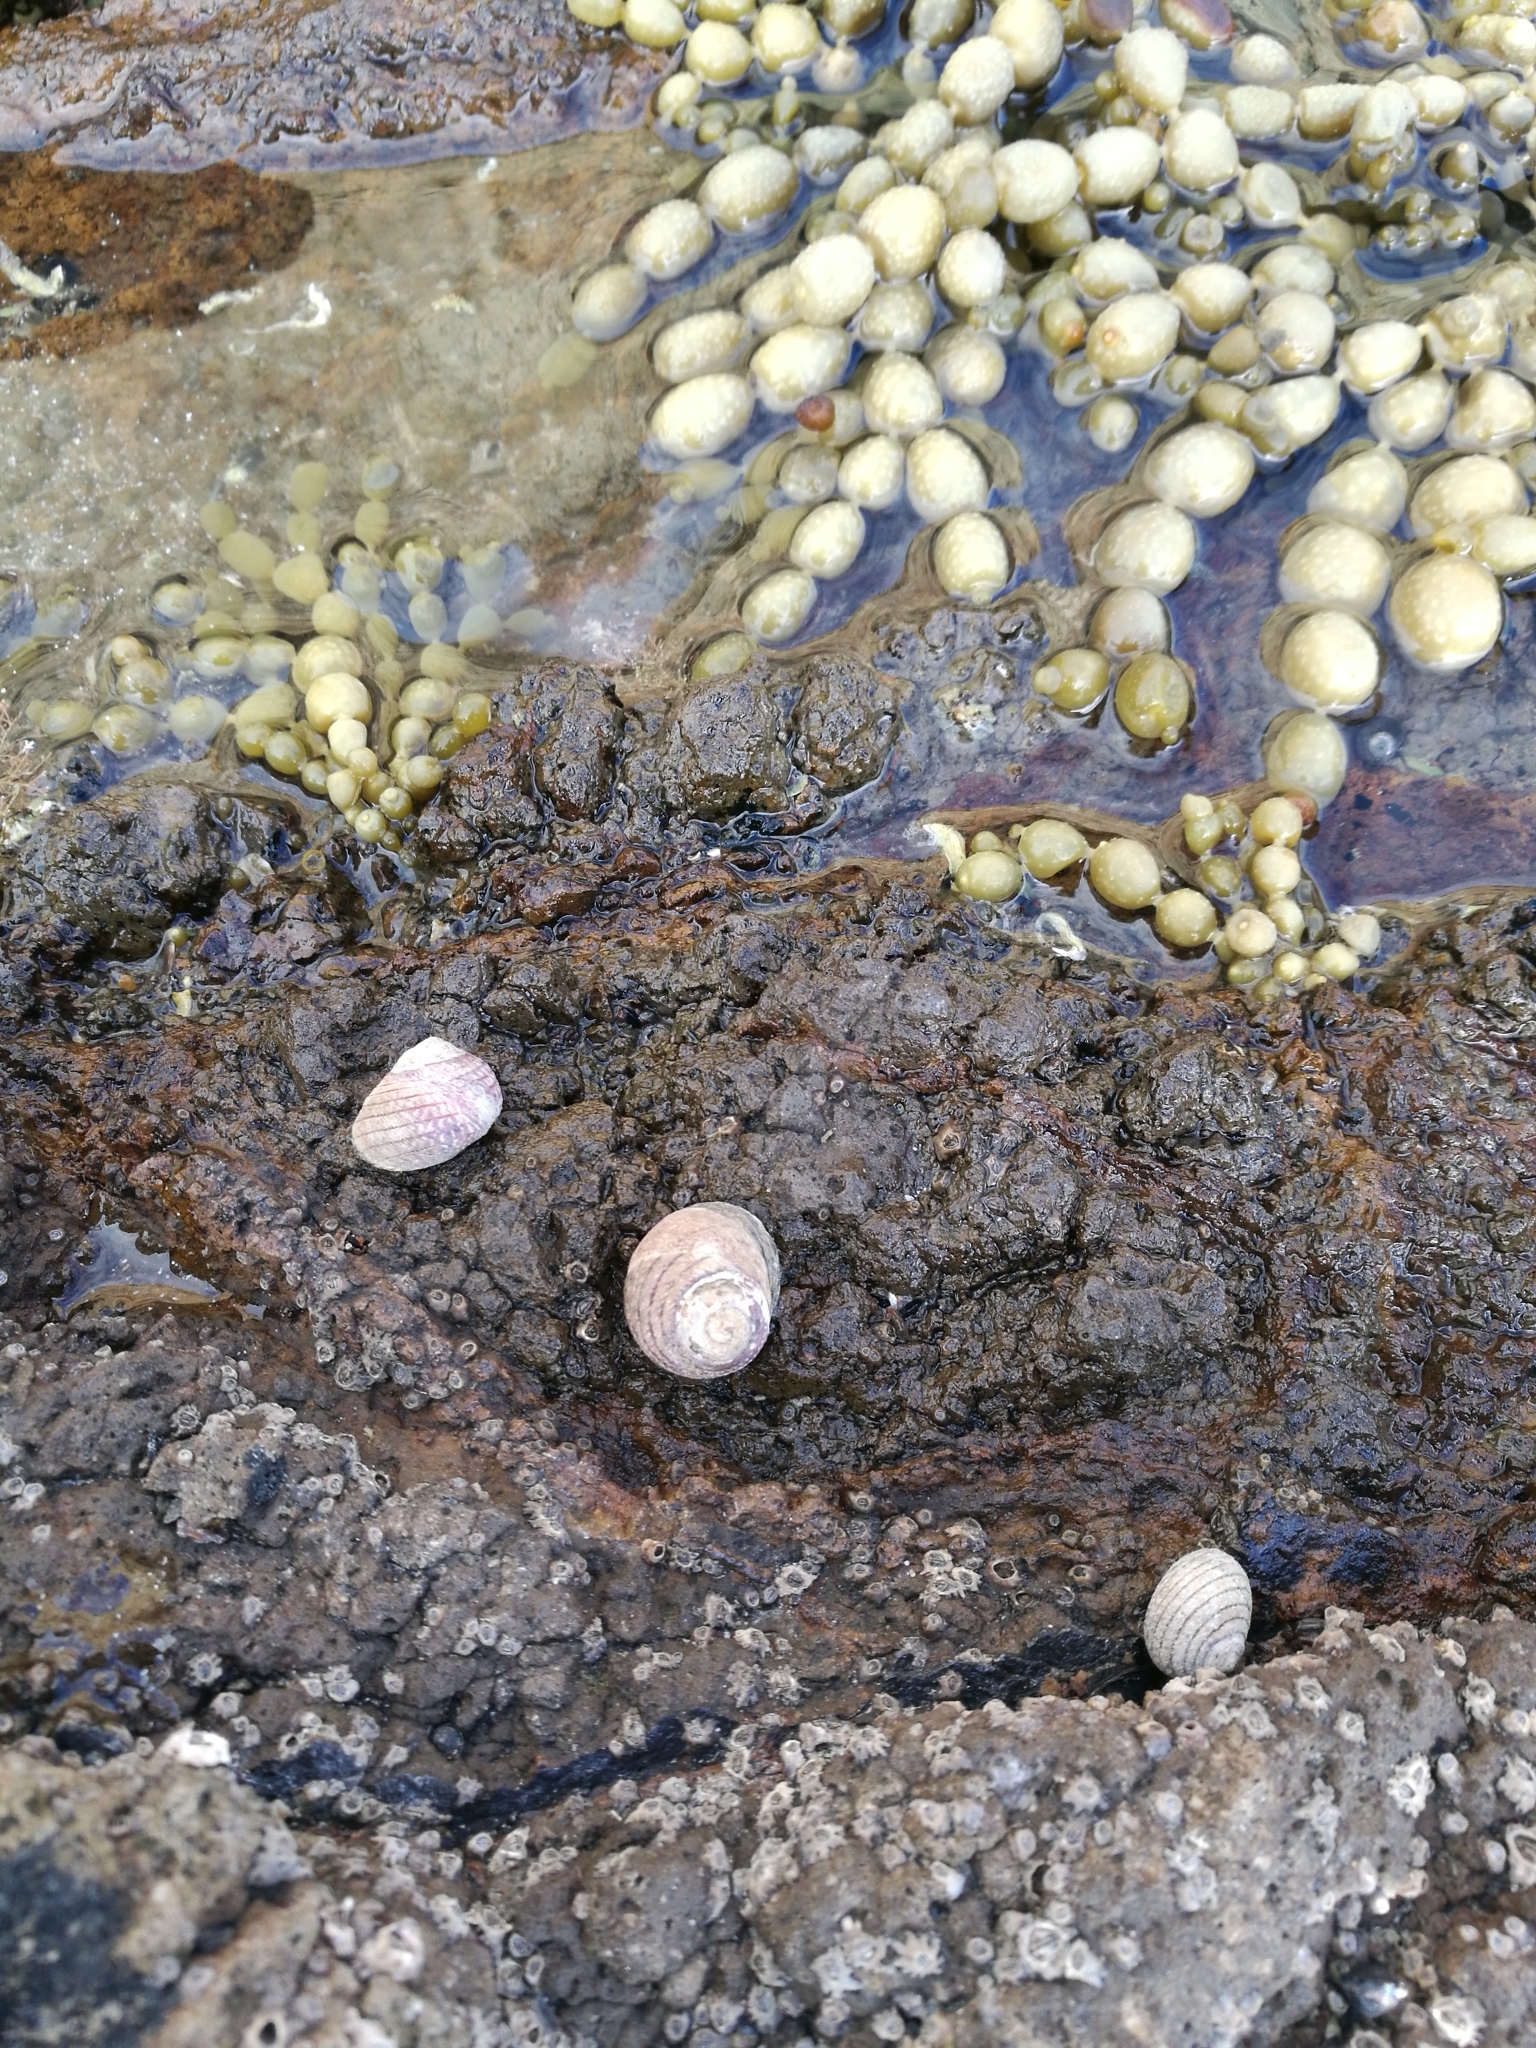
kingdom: Animalia
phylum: Mollusca
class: Gastropoda
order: Trochida
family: Trochidae
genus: Diloma
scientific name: Diloma aethiops
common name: Scorched monodont
